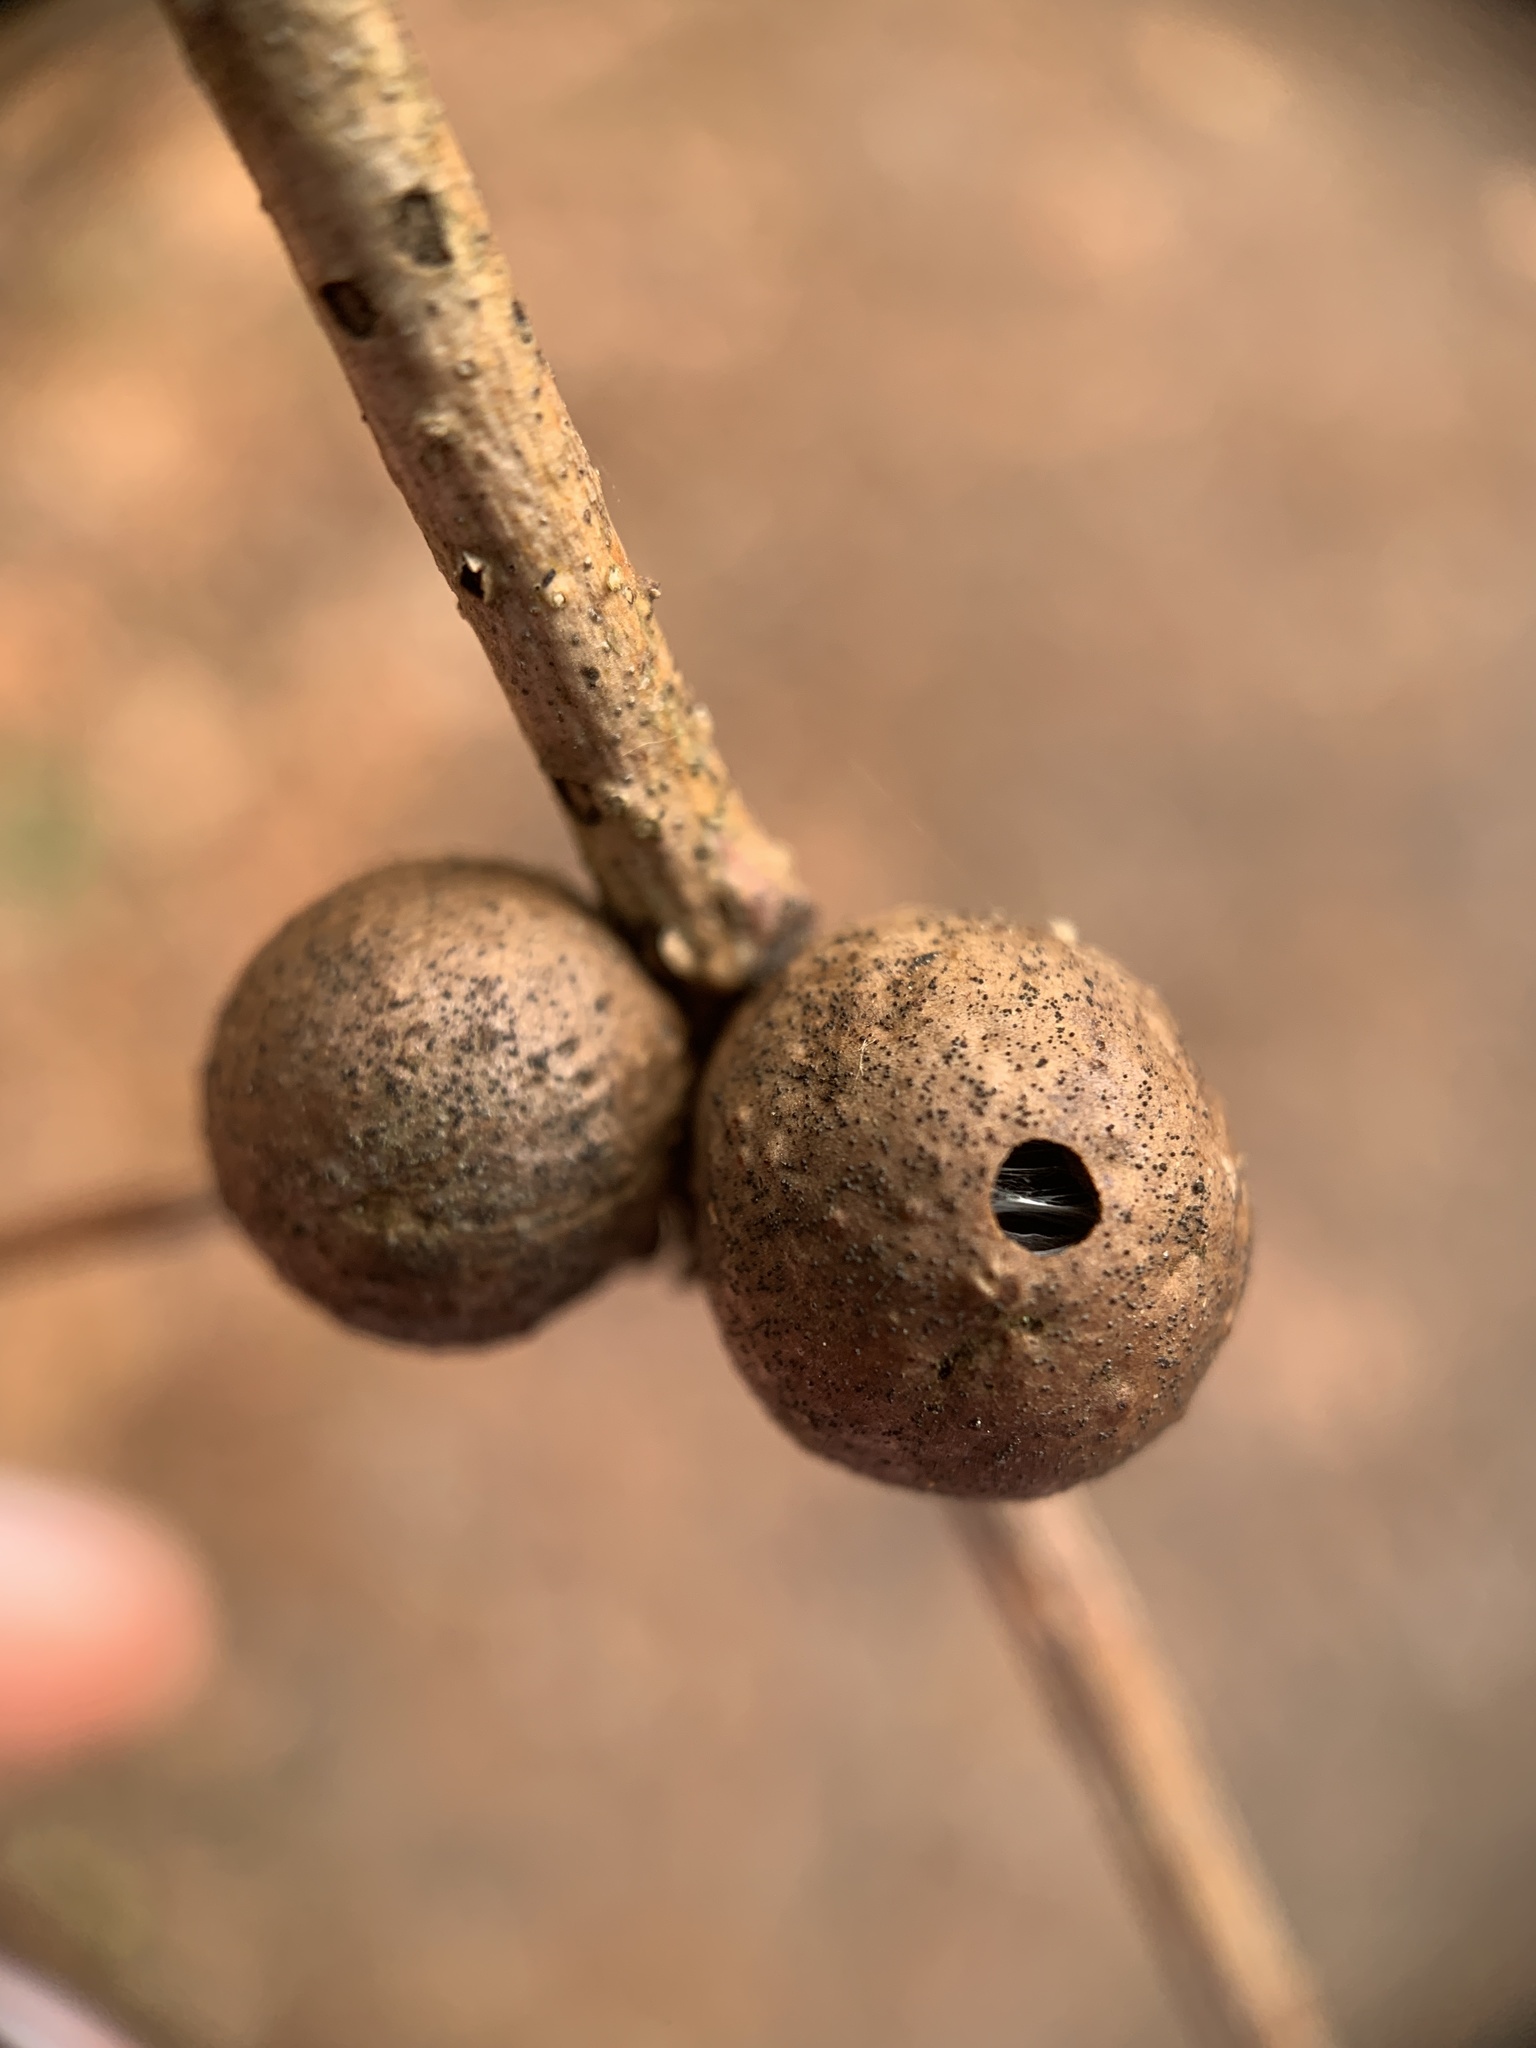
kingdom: Animalia
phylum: Arthropoda
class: Insecta
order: Hymenoptera
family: Cynipidae
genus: Disholcaspis
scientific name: Disholcaspis quercusglobulus
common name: Round bullet gall wasp
